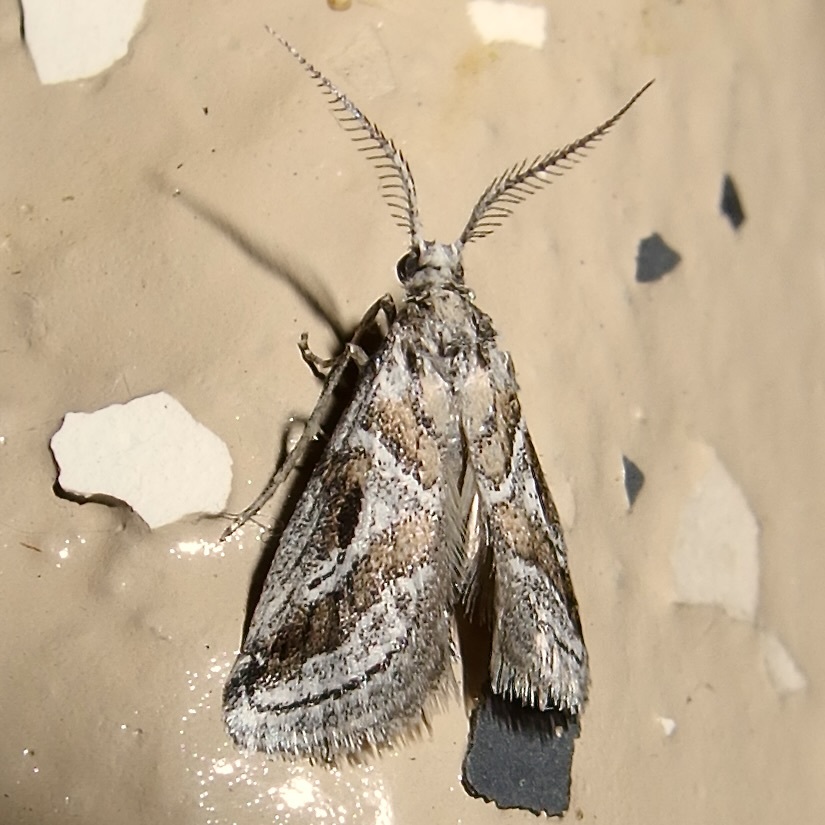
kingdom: Animalia
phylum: Arthropoda
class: Insecta
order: Lepidoptera
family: Pyralidae
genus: Alpheias
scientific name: Alpheias Decaturia pectinalis
